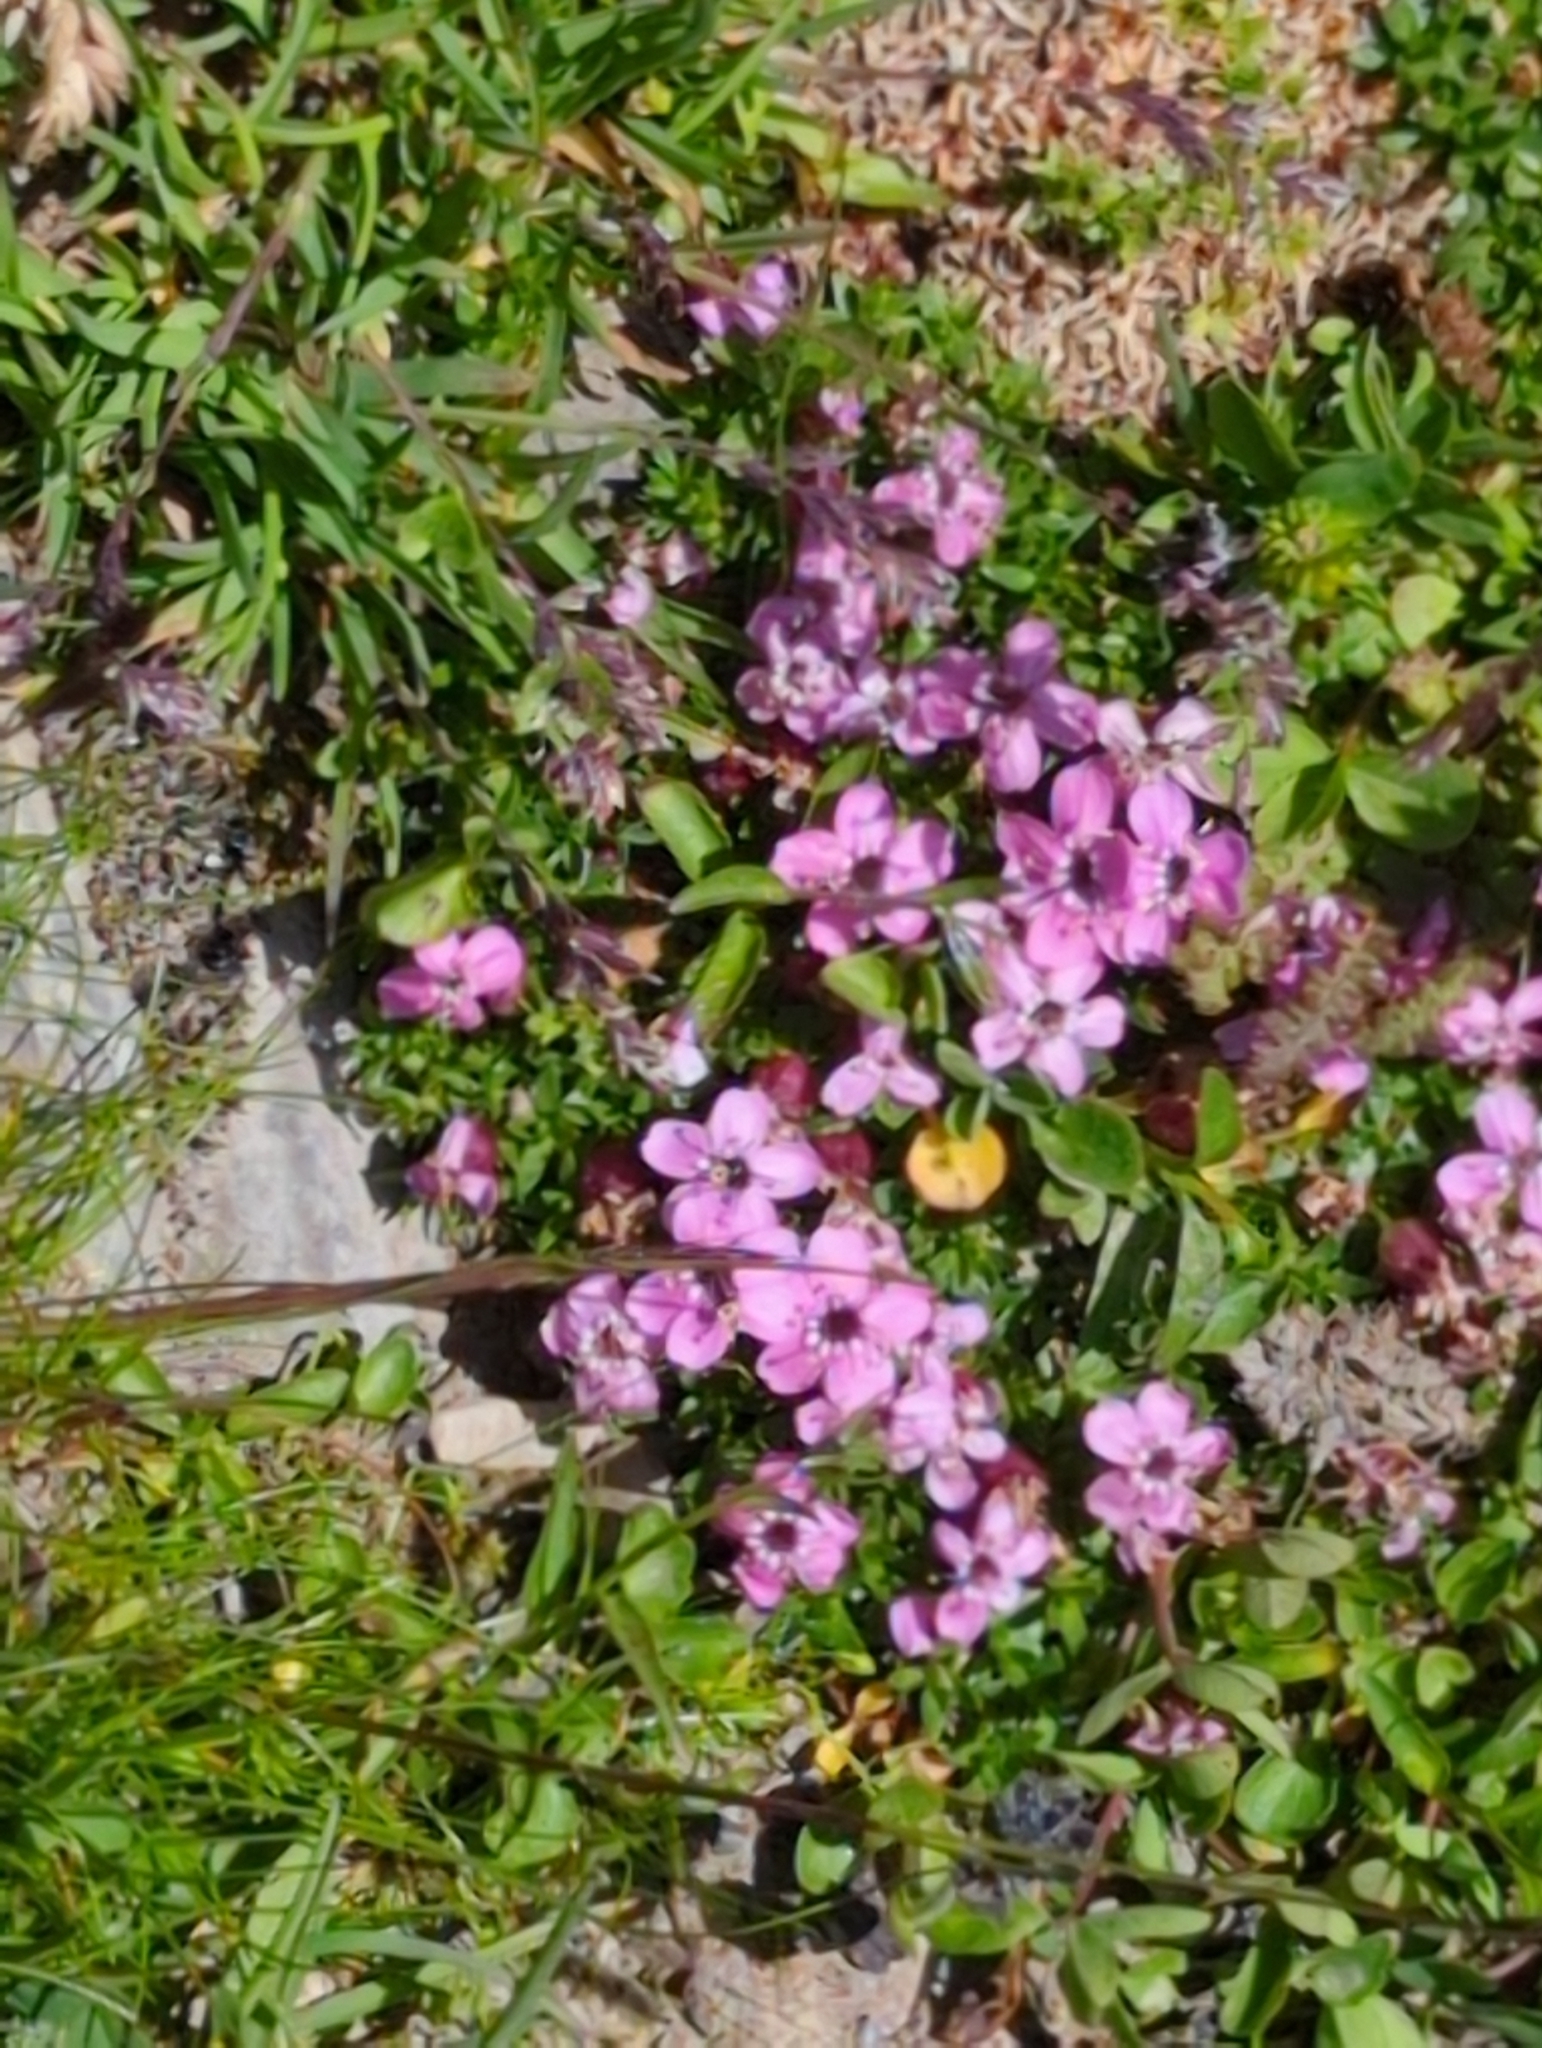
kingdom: Plantae
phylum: Tracheophyta
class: Magnoliopsida
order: Caryophyllales
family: Caryophyllaceae
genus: Silene
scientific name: Silene acaulis
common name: Moss campion
